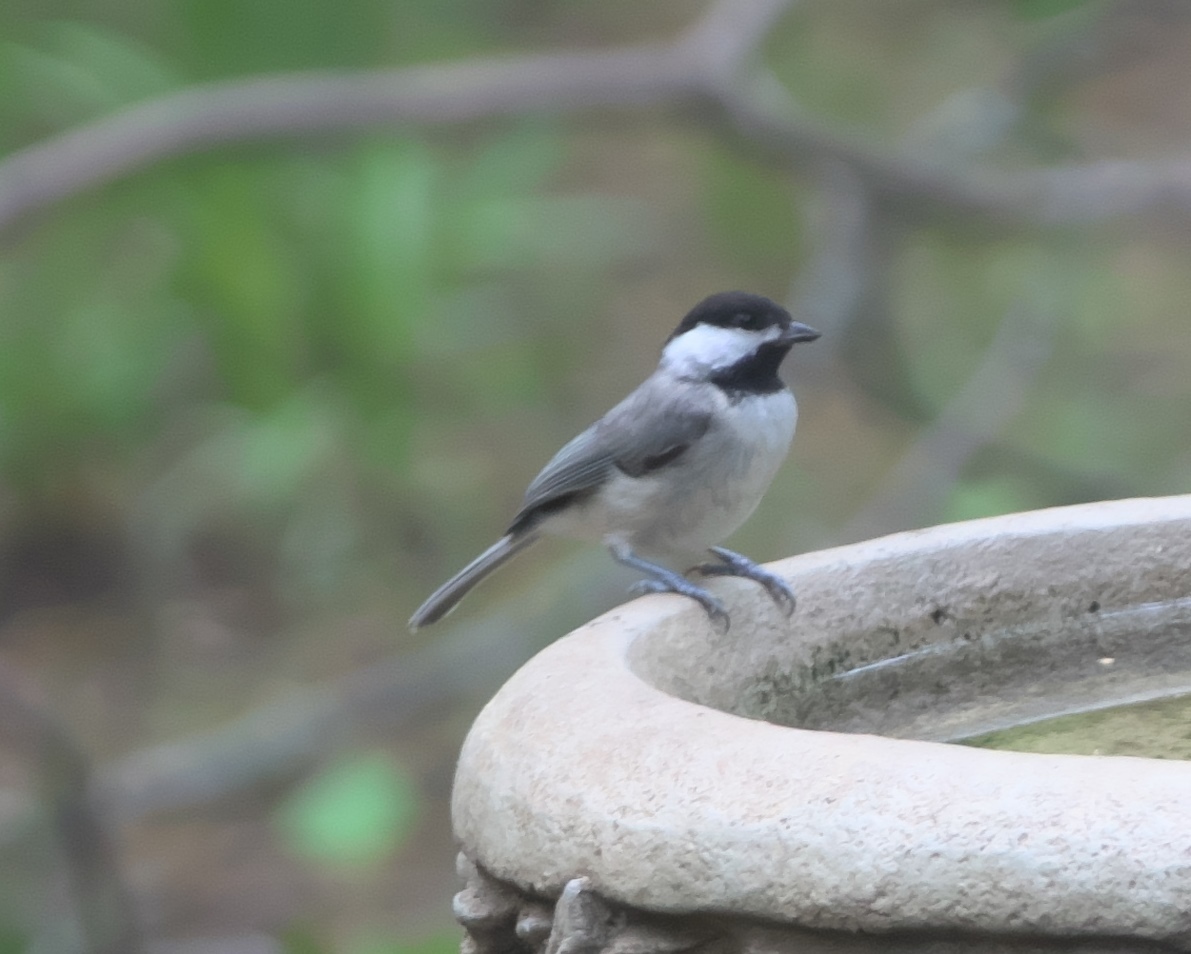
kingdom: Animalia
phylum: Chordata
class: Aves
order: Passeriformes
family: Paridae
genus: Poecile
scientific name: Poecile carolinensis
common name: Carolina chickadee
